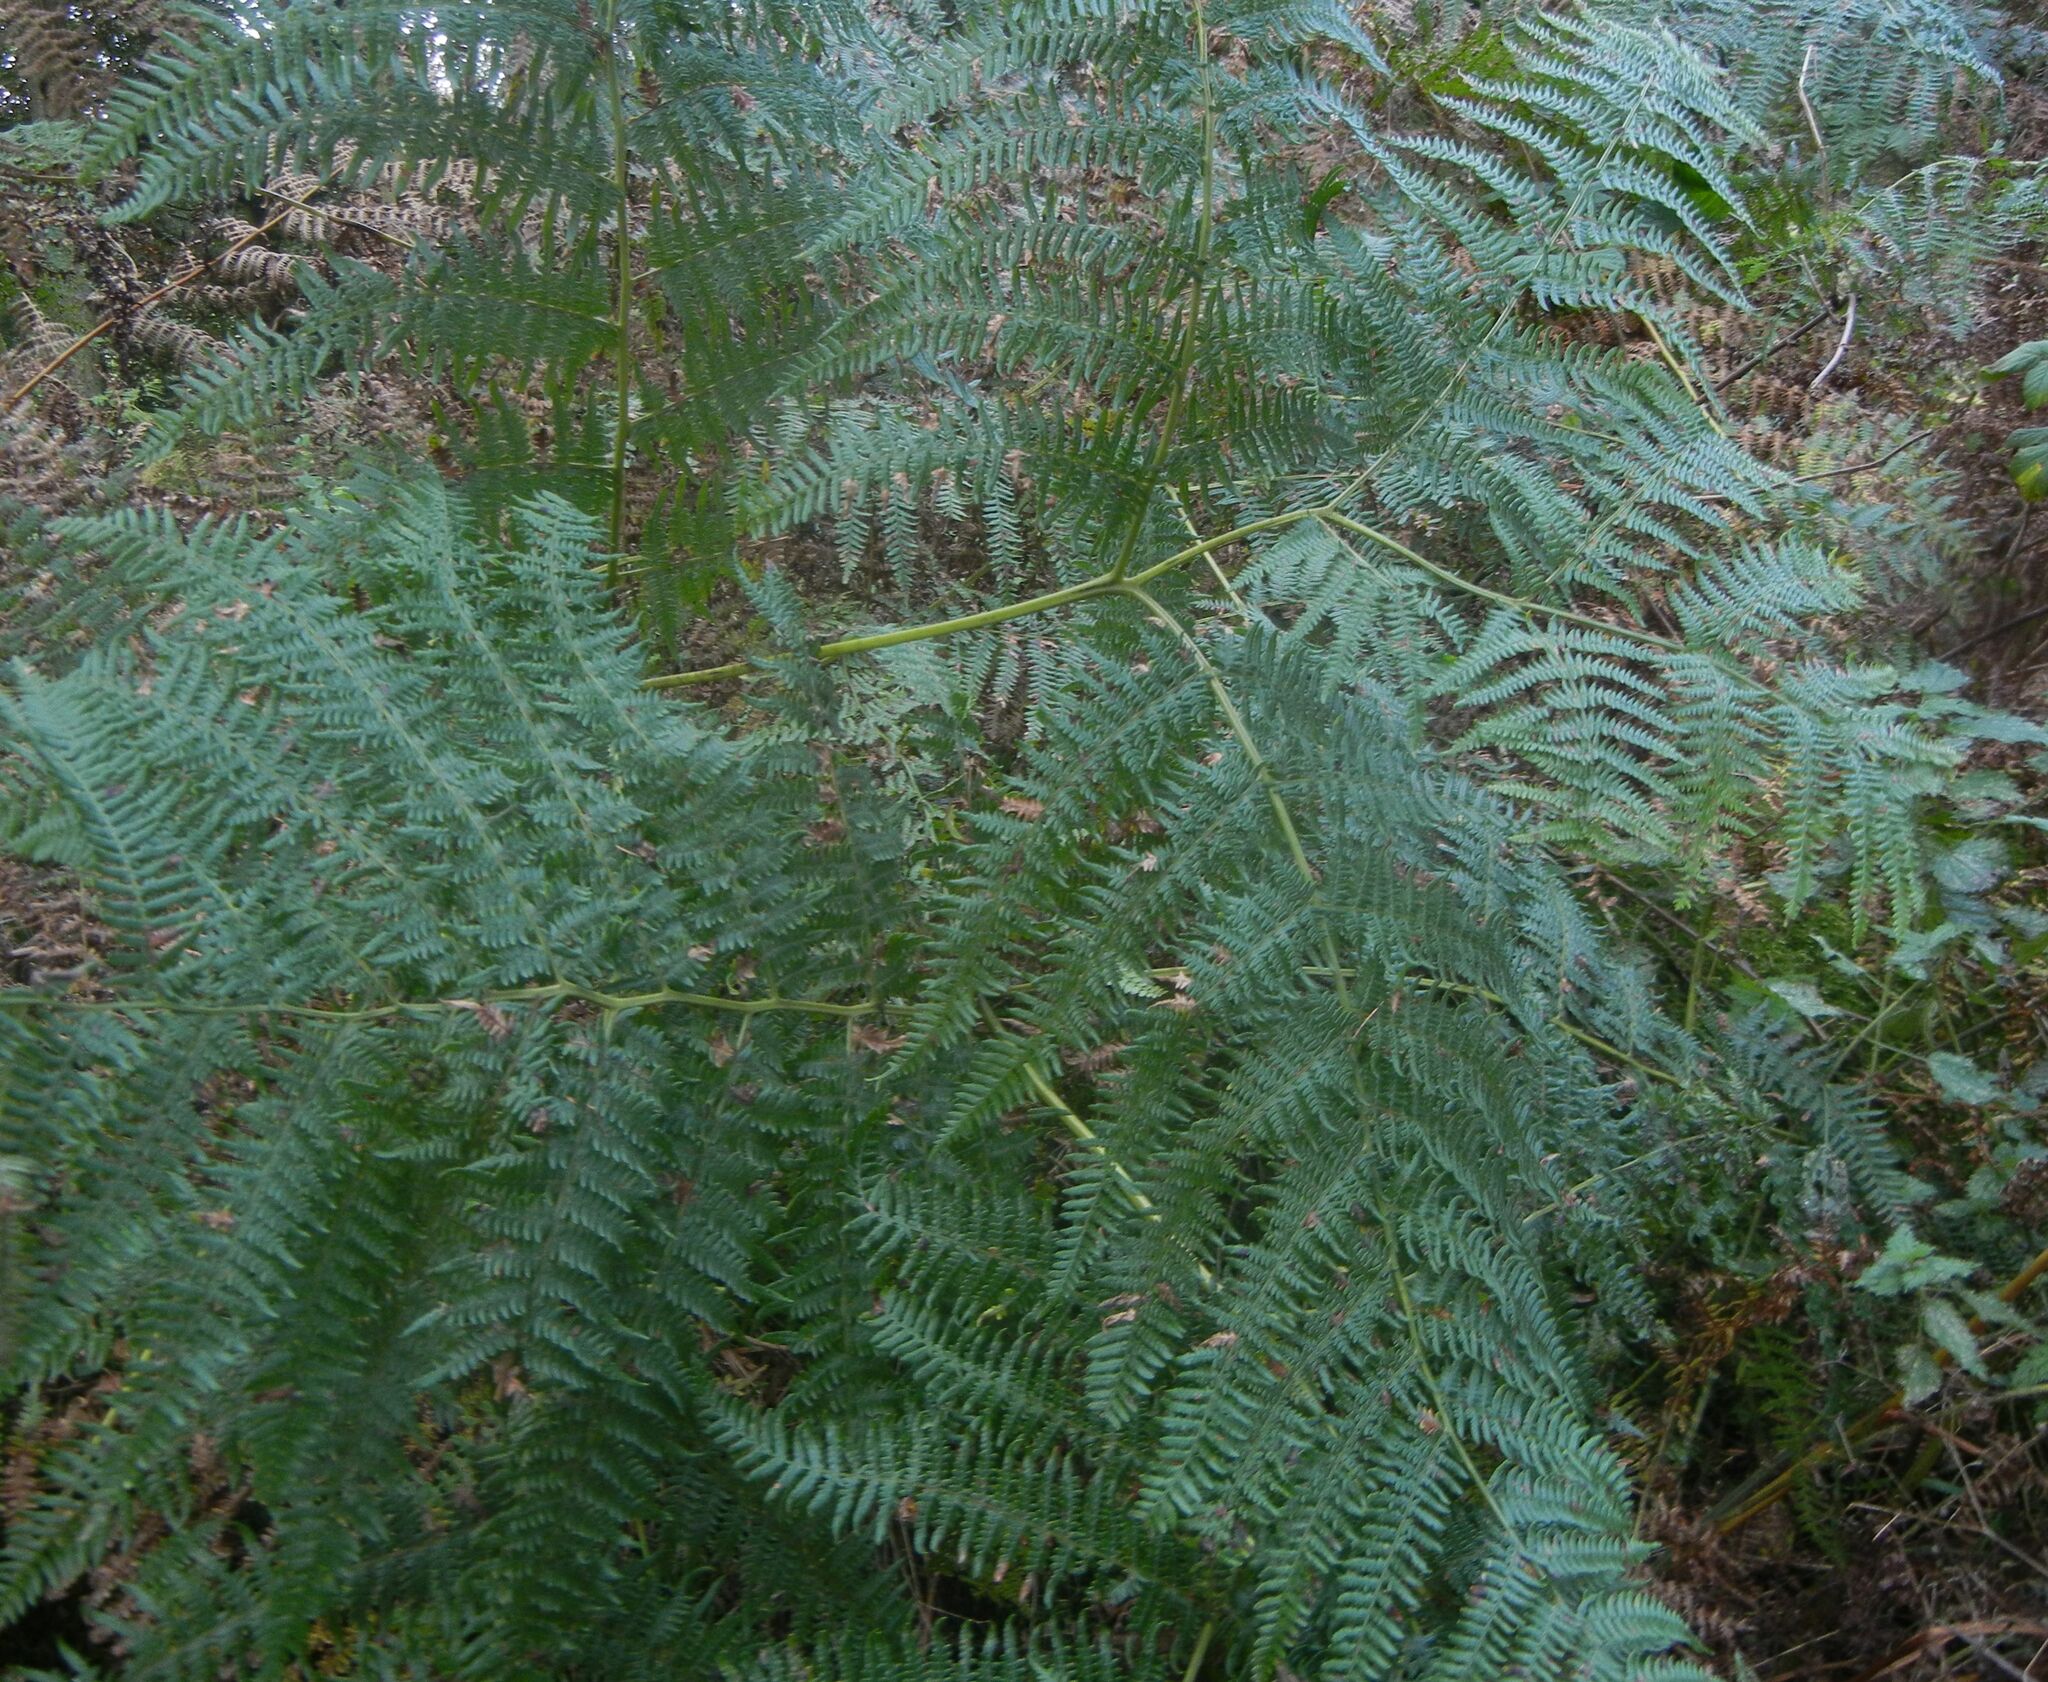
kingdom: Plantae
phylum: Tracheophyta
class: Polypodiopsida
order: Polypodiales
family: Dennstaedtiaceae
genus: Pteridium
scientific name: Pteridium aquilinum
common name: Bracken
